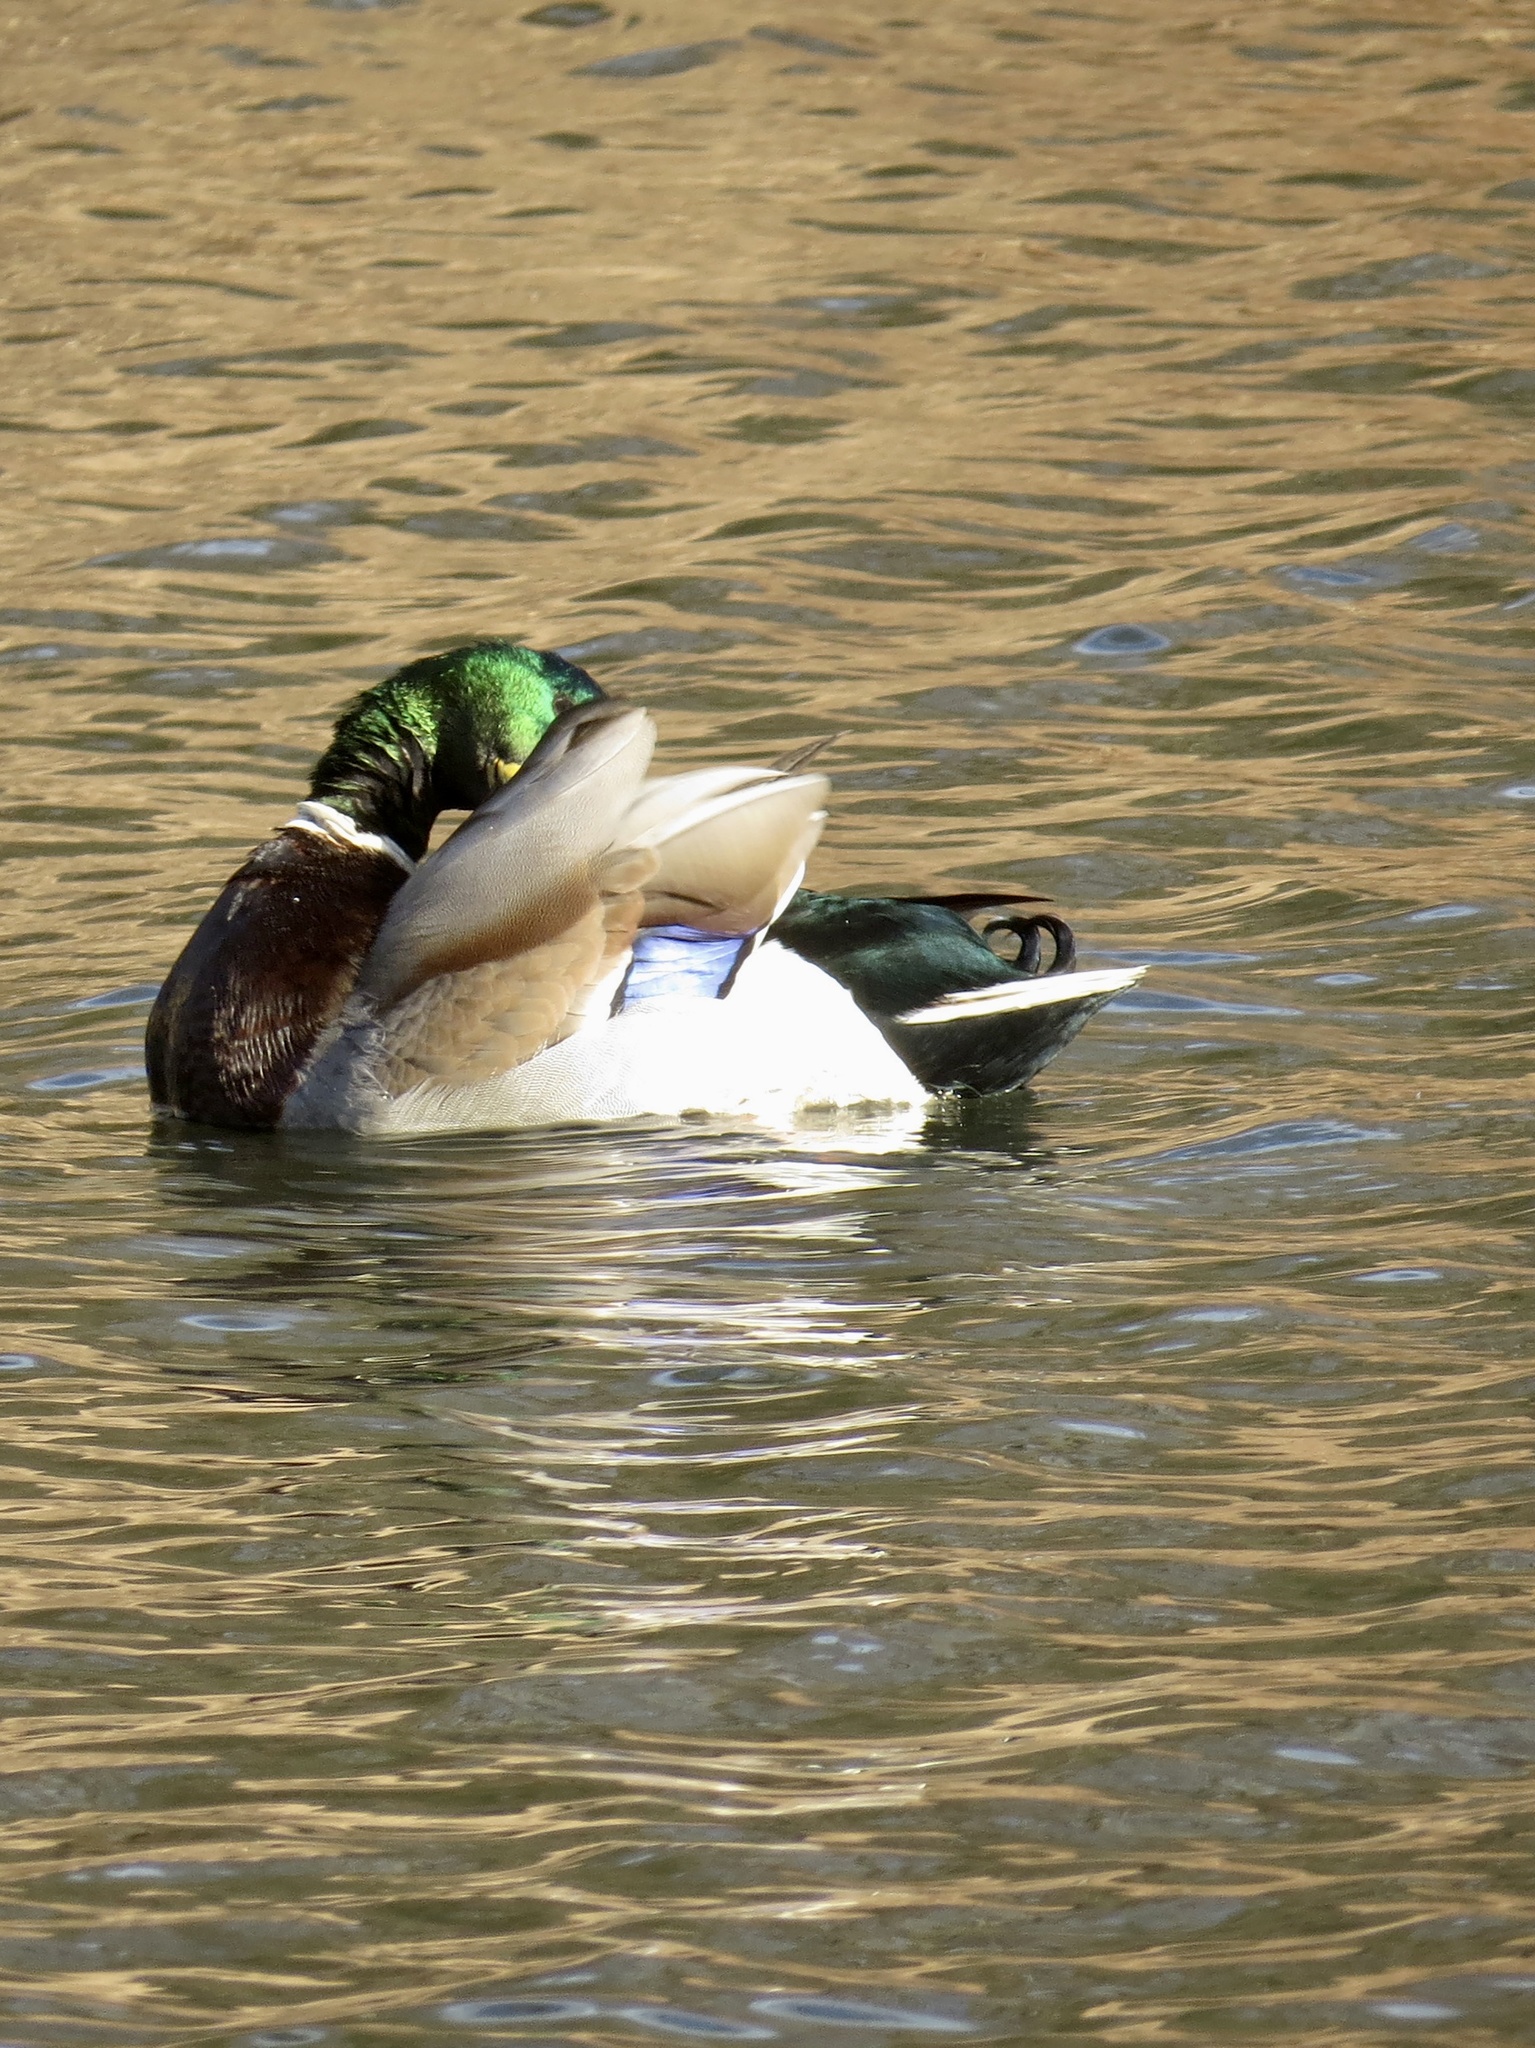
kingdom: Animalia
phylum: Chordata
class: Aves
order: Anseriformes
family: Anatidae
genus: Anas
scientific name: Anas platyrhynchos
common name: Mallard
